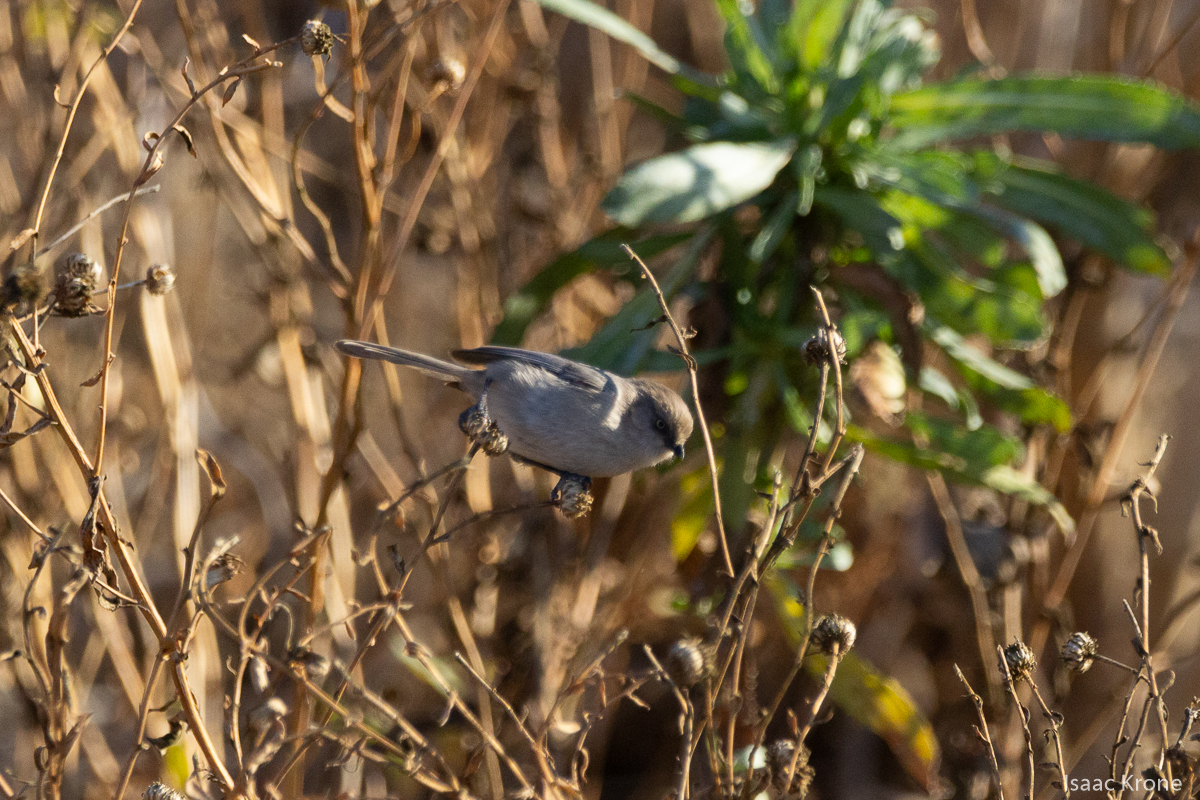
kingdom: Animalia
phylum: Chordata
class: Aves
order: Passeriformes
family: Aegithalidae
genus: Psaltriparus
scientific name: Psaltriparus minimus
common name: American bushtit
